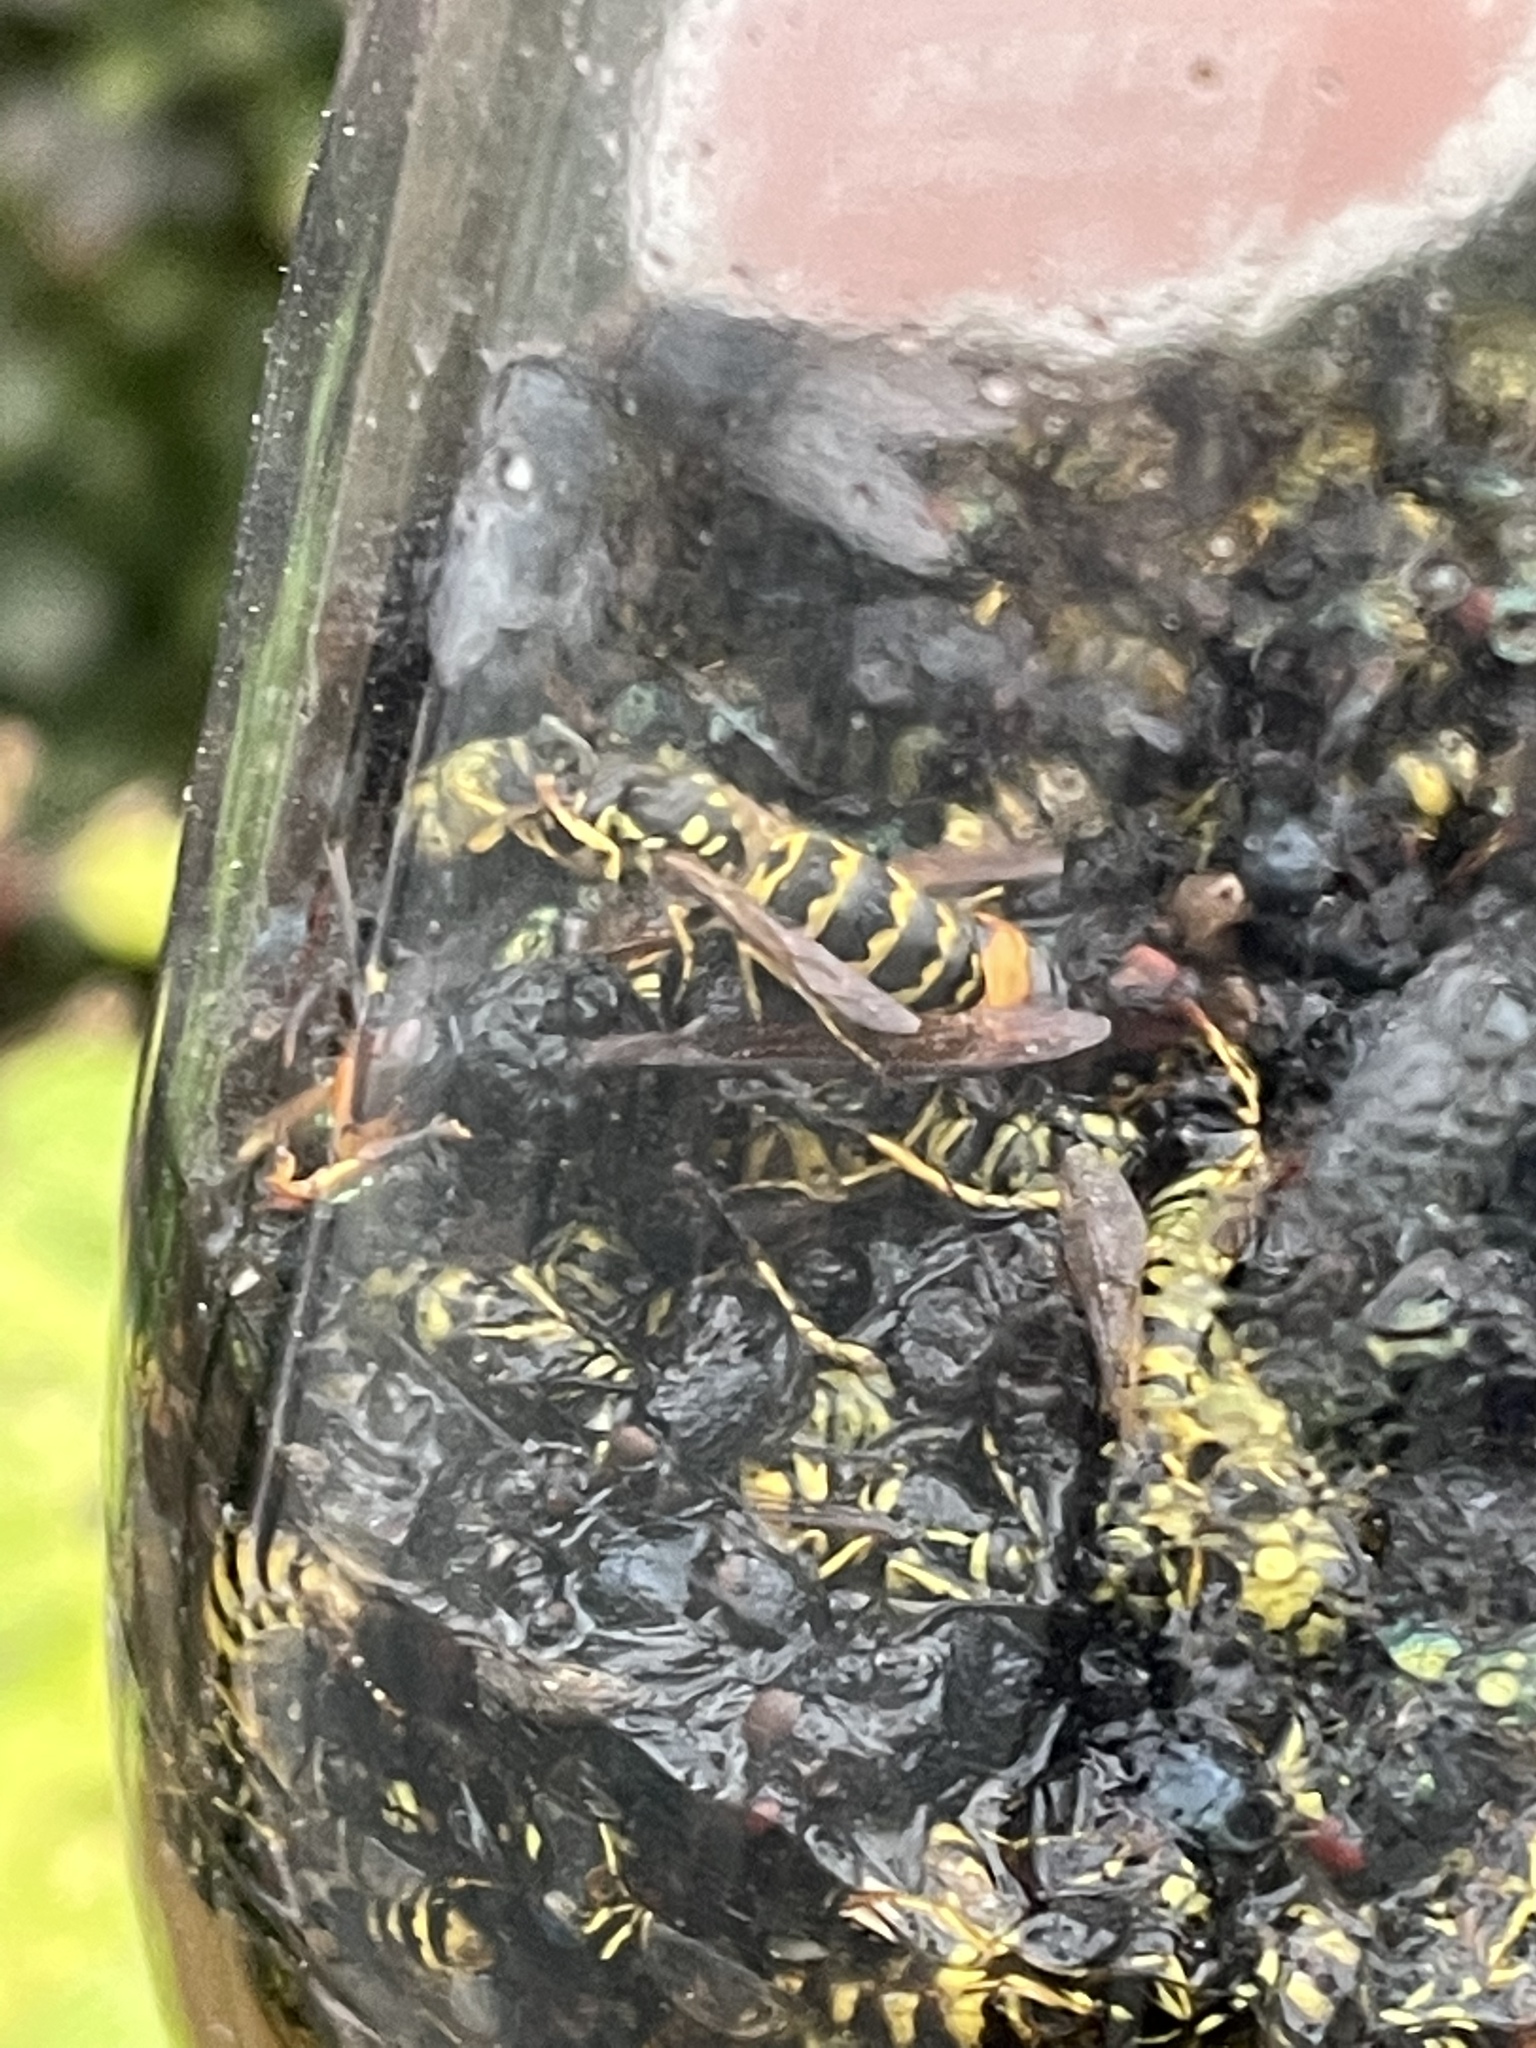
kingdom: Animalia
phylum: Arthropoda
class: Insecta
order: Hymenoptera
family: Vespidae
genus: Vespa
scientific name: Vespa velutina
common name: Asian hornet
